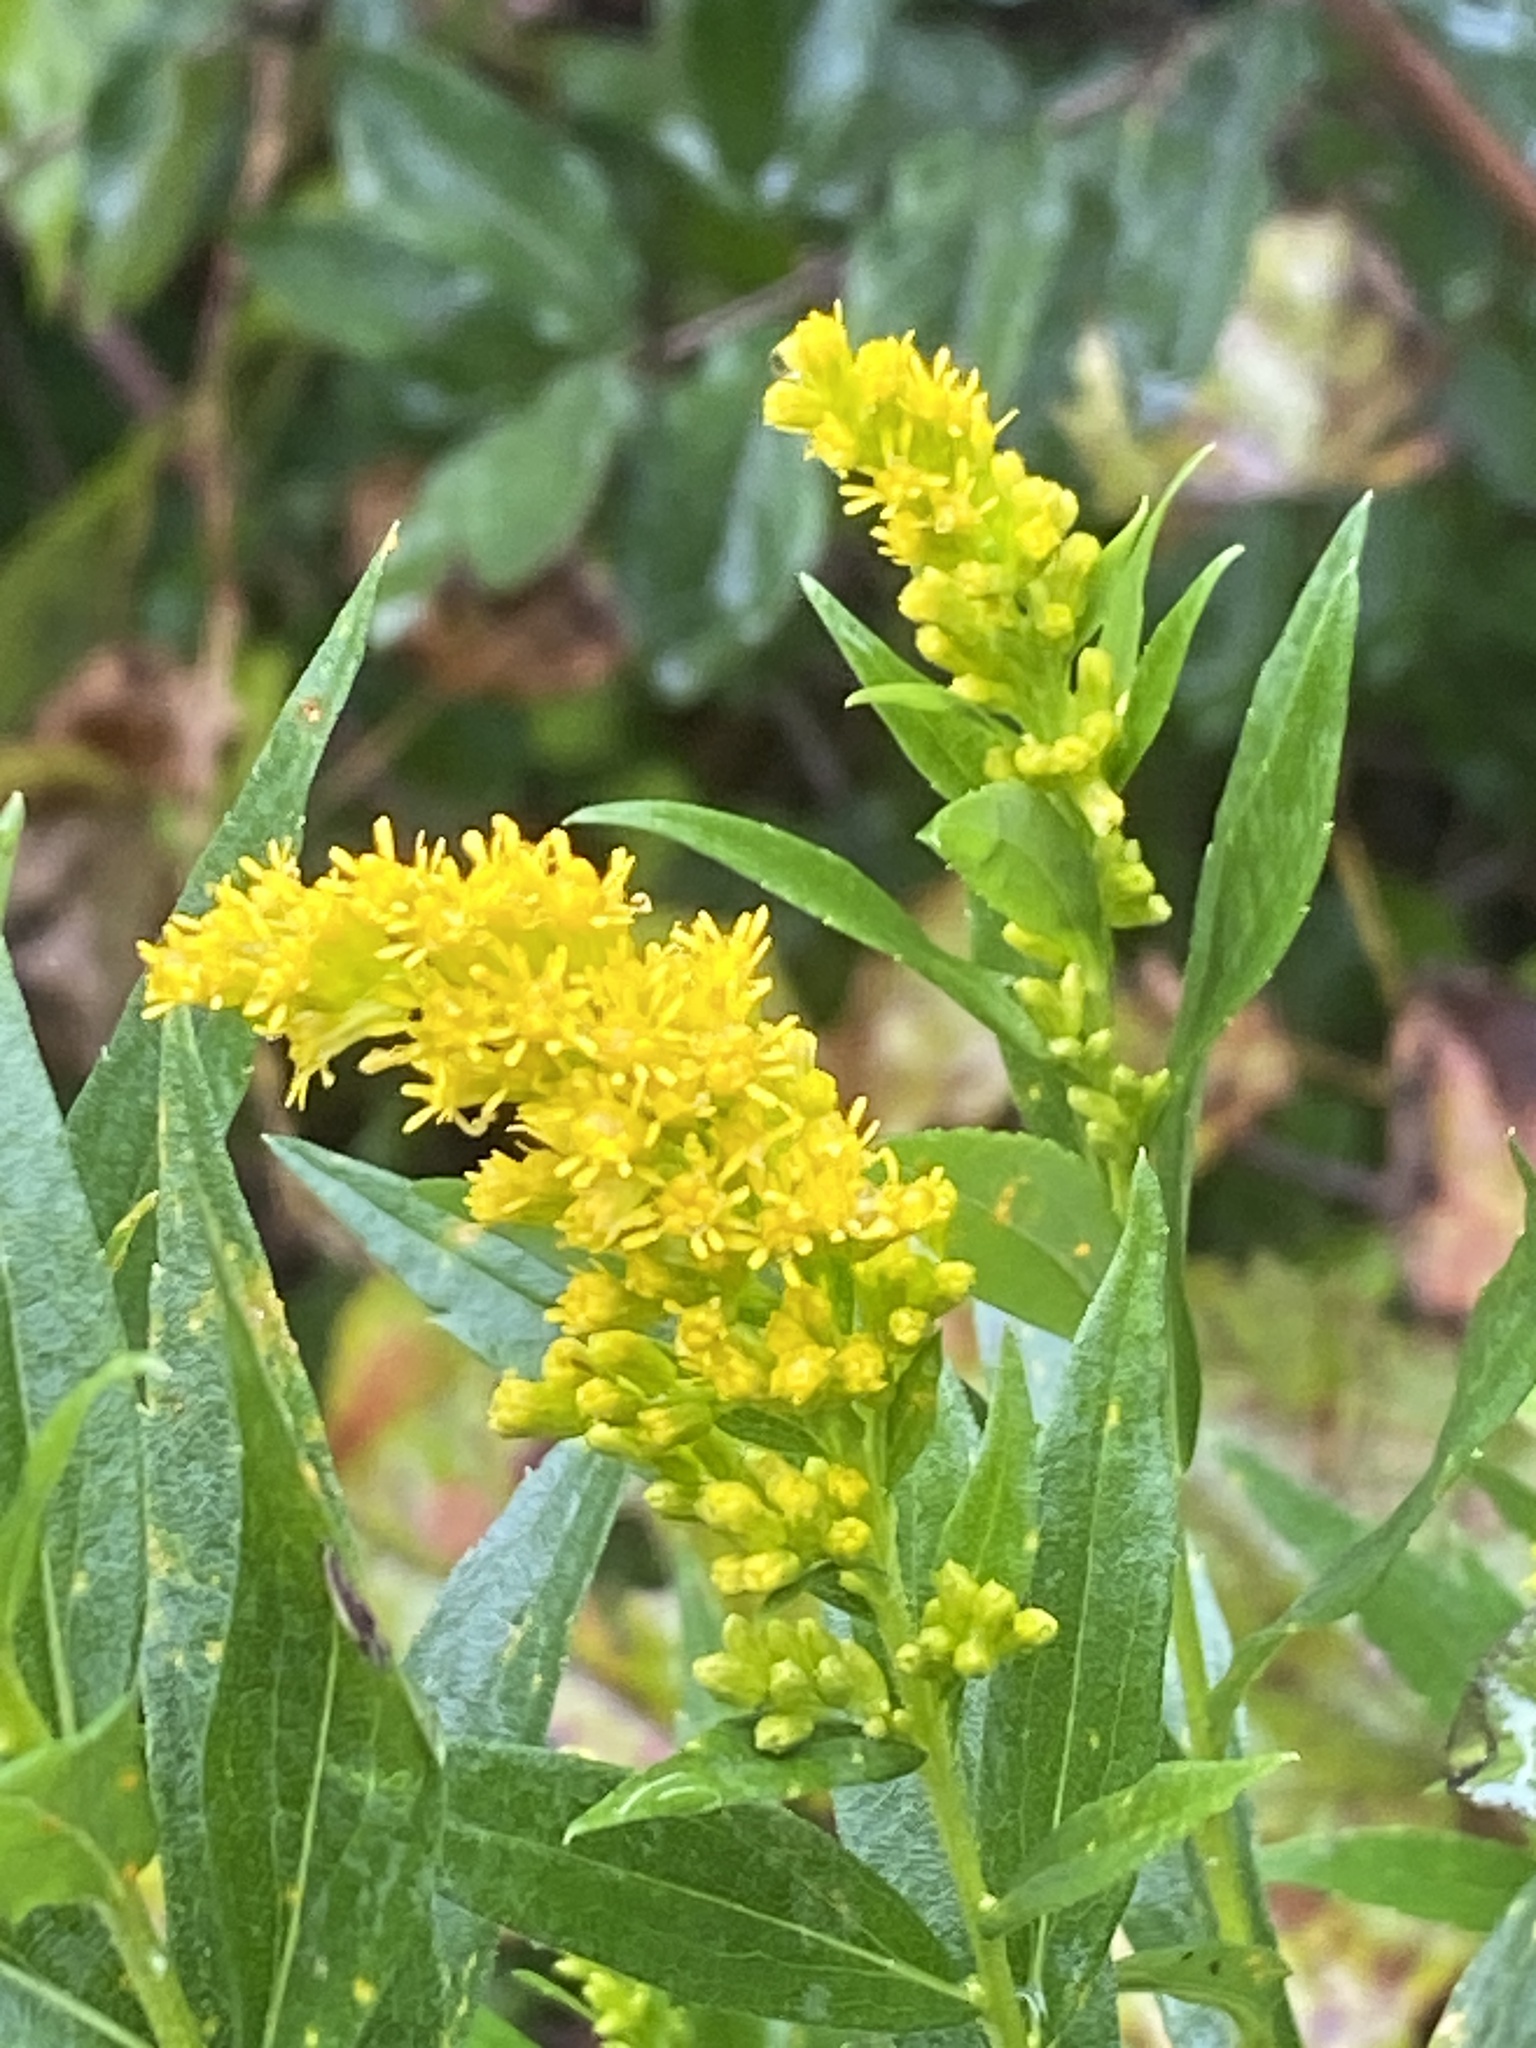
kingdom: Plantae
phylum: Tracheophyta
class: Magnoliopsida
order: Asterales
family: Asteraceae
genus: Solidago
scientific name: Solidago altissima
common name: Late goldenrod
